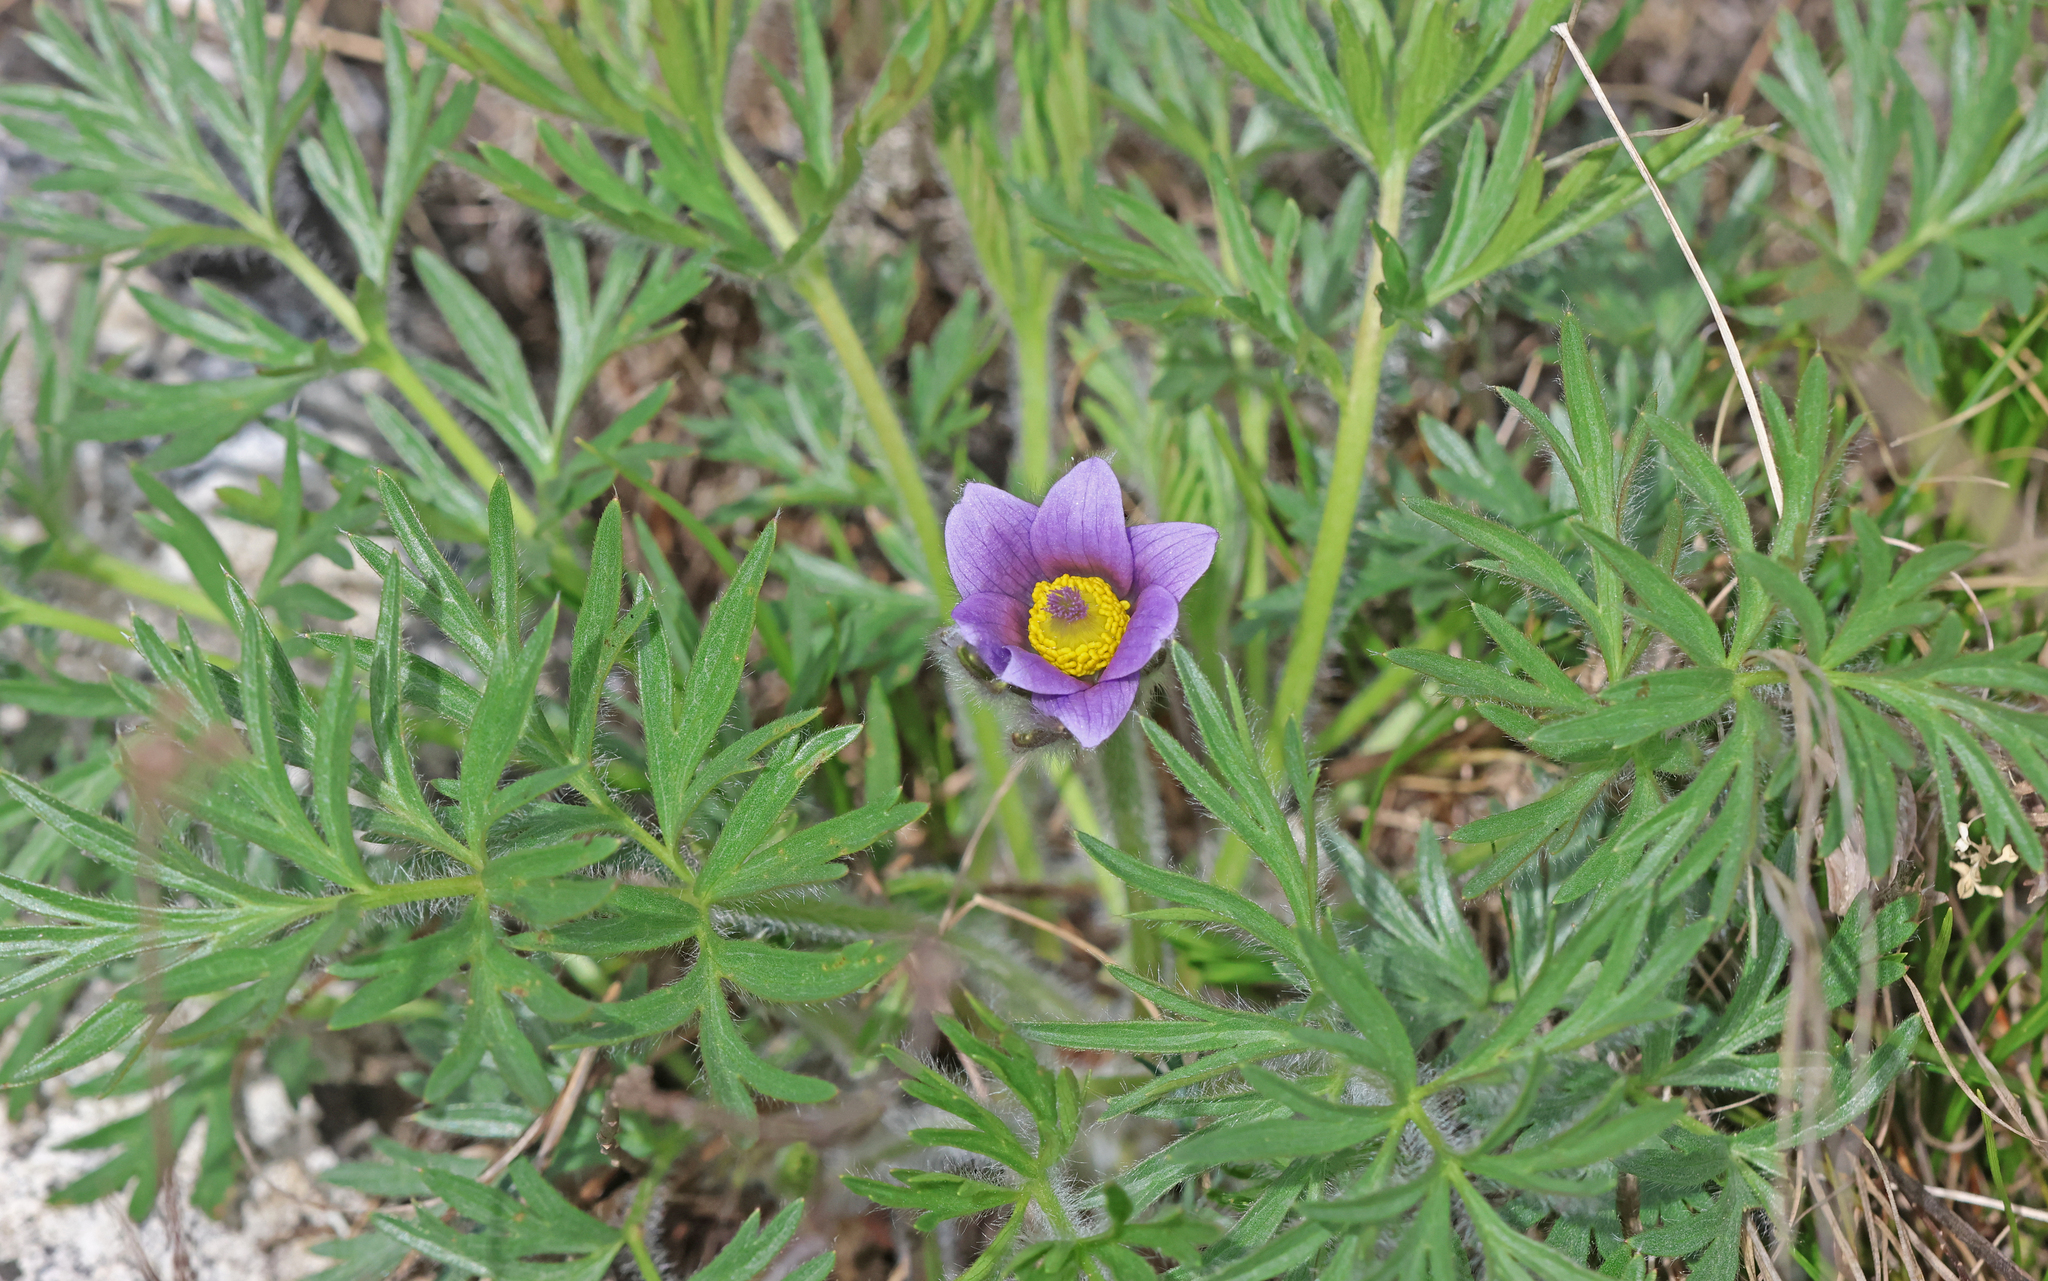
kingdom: Plantae
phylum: Tracheophyta
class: Magnoliopsida
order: Ranunculales
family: Ranunculaceae
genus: Pulsatilla
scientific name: Pulsatilla vulgaris
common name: Pasqueflower
